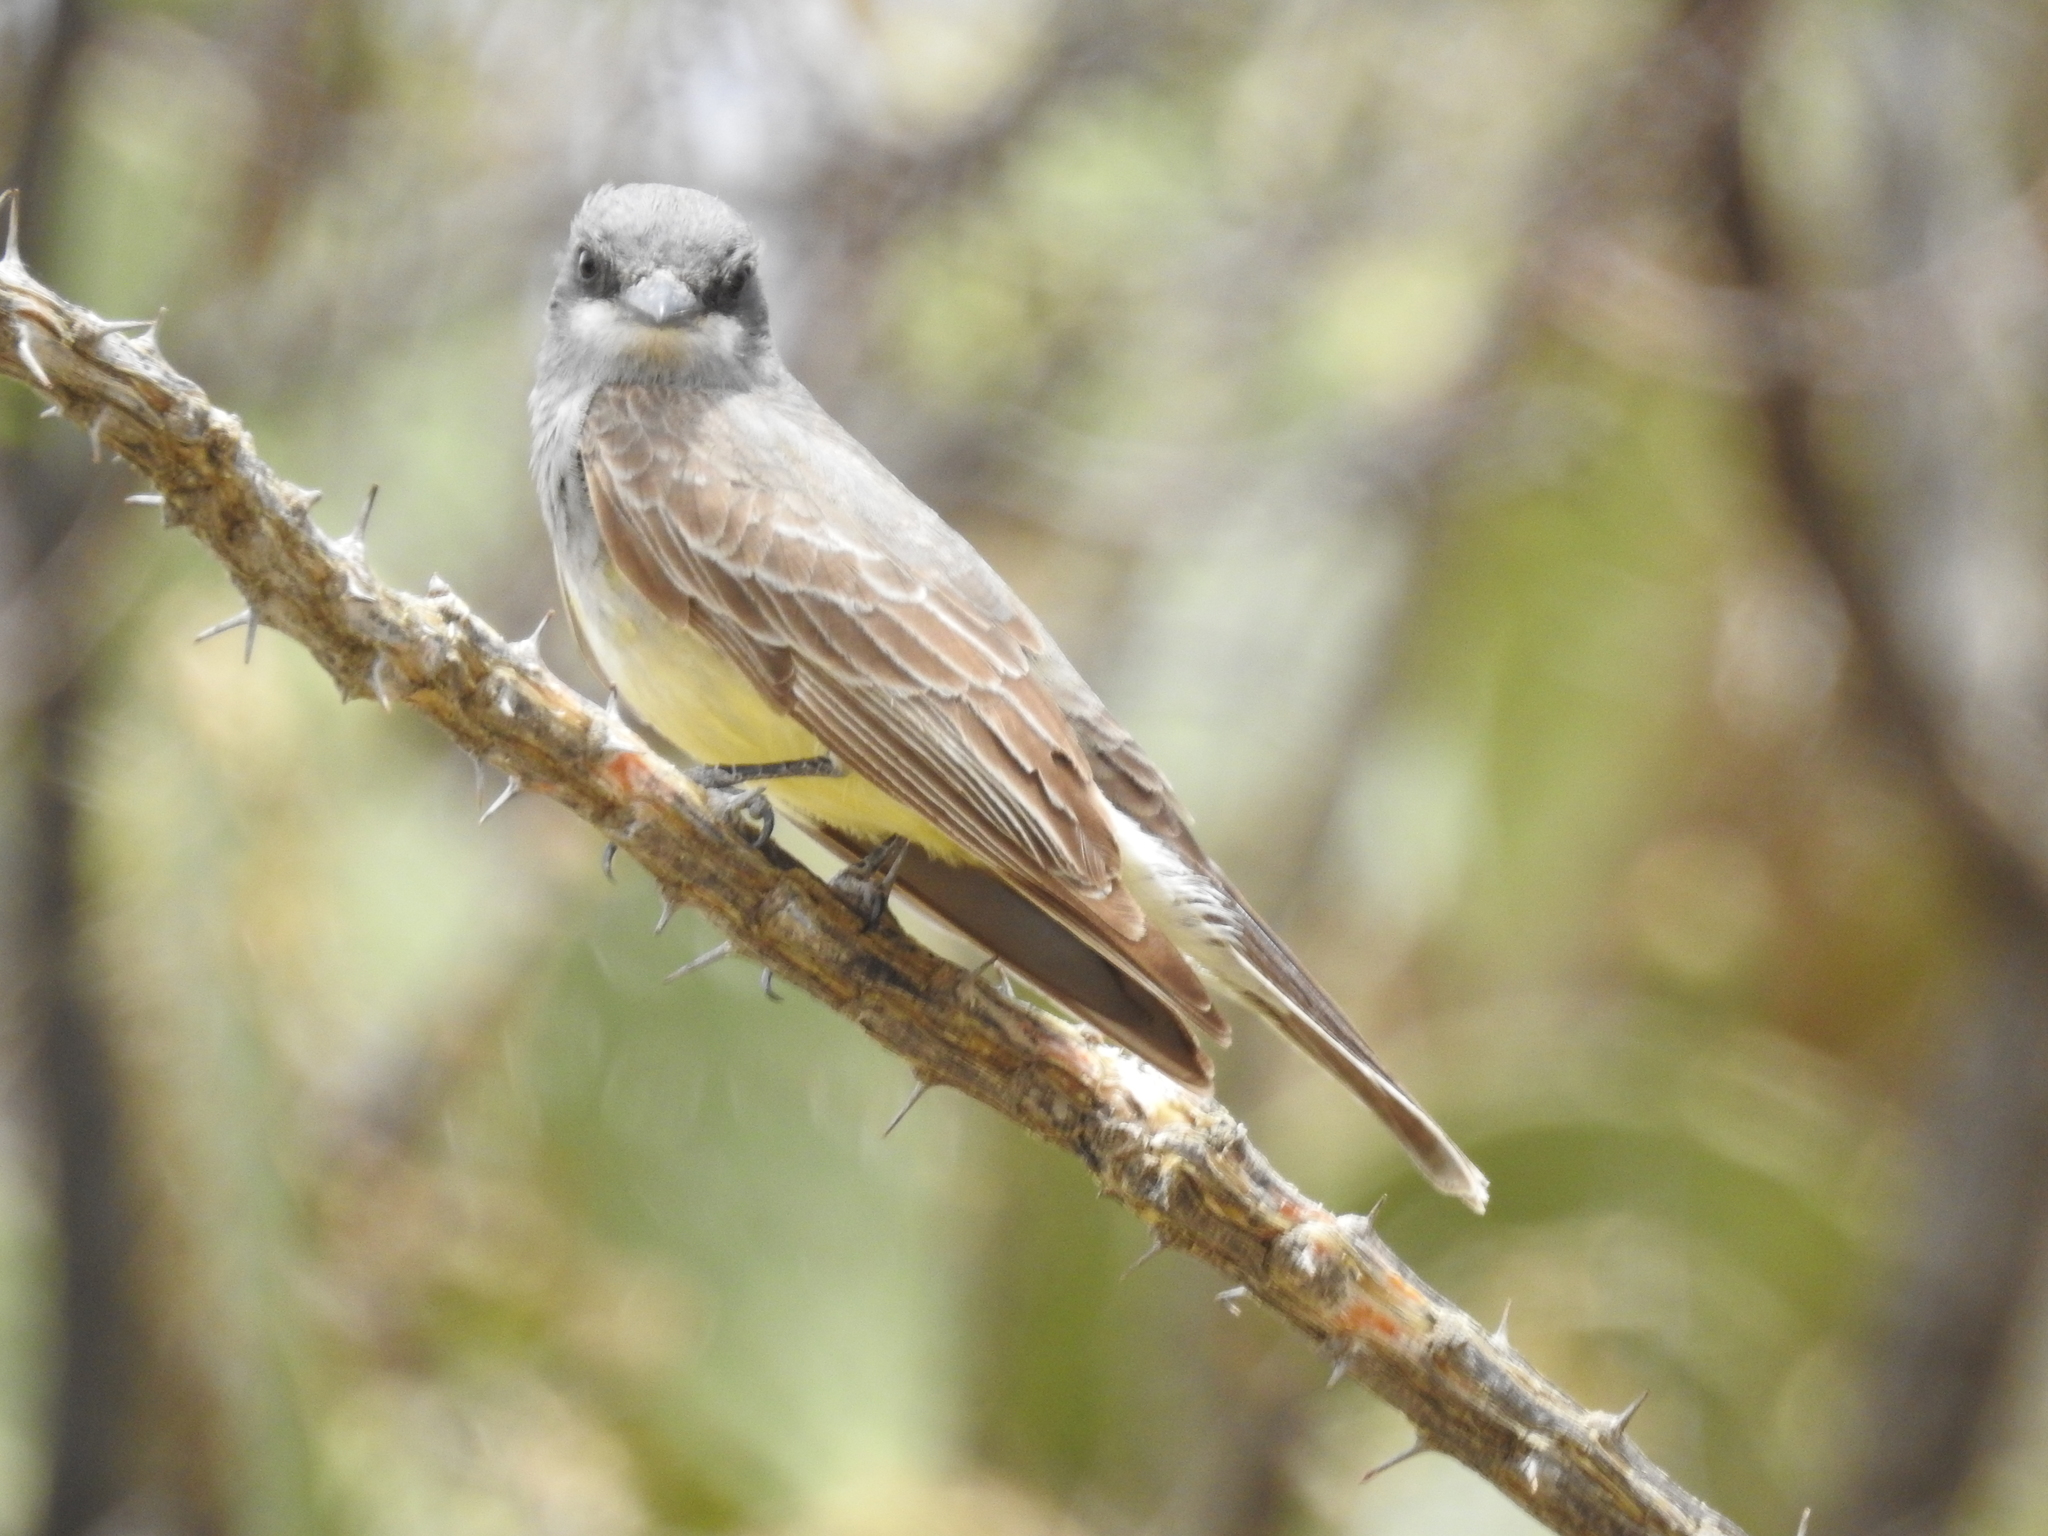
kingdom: Animalia
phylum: Chordata
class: Aves
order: Passeriformes
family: Tyrannidae
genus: Tyrannus
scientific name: Tyrannus vociferans
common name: Cassin's kingbird
